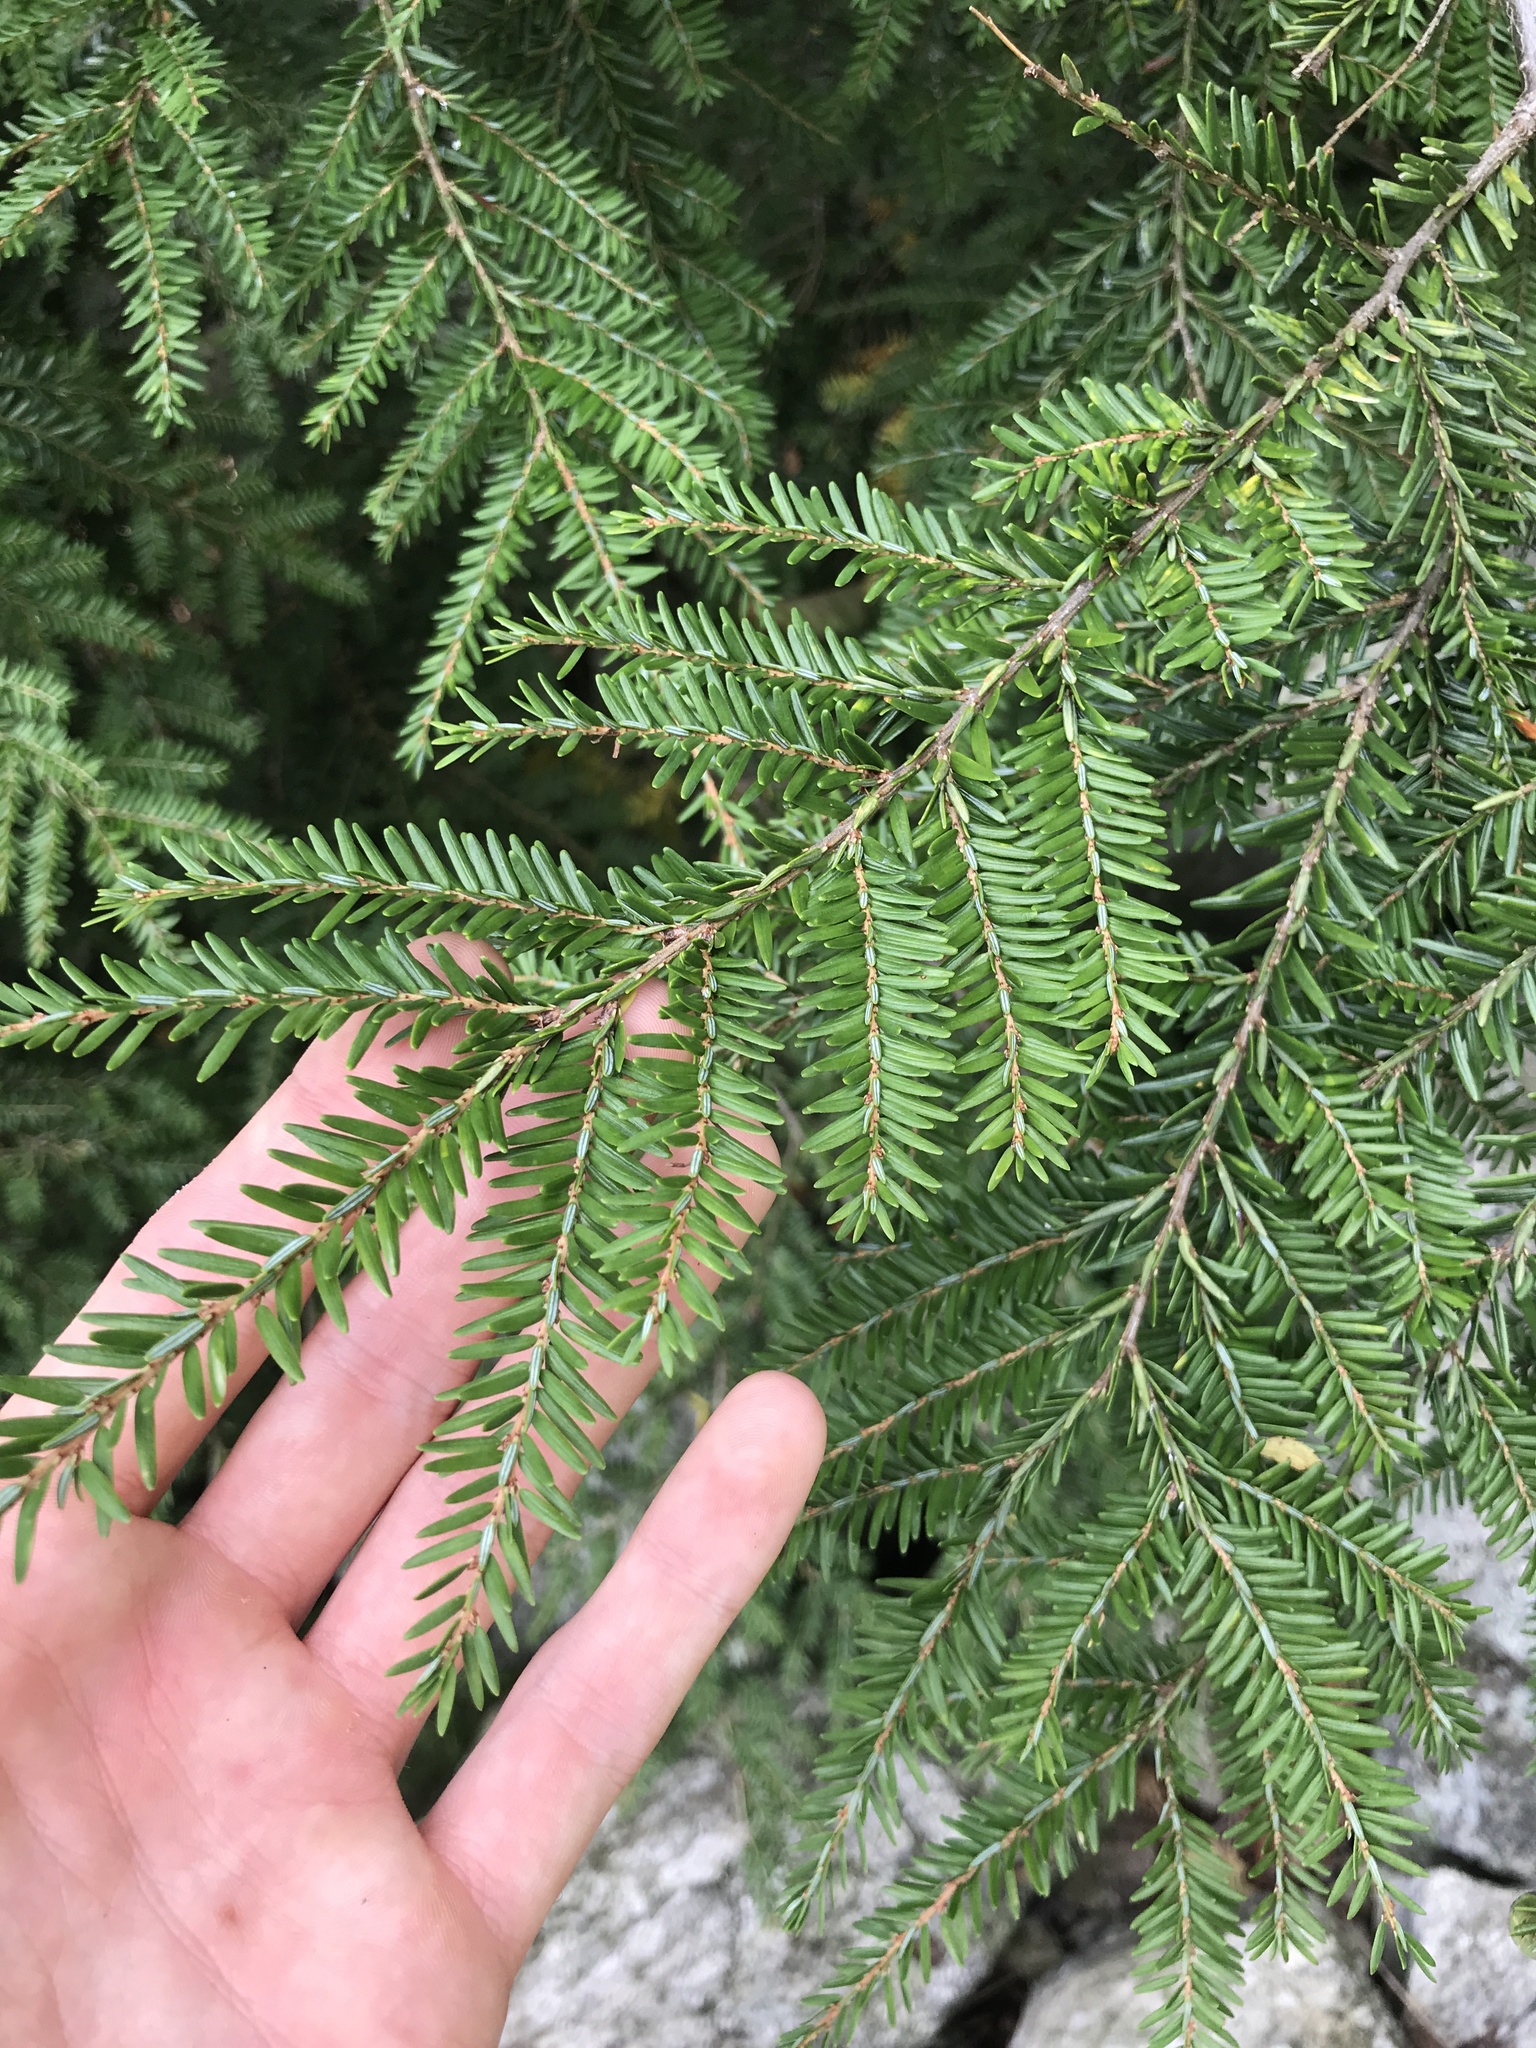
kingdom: Plantae
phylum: Tracheophyta
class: Pinopsida
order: Pinales
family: Pinaceae
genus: Tsuga
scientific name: Tsuga canadensis
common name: Eastern hemlock
